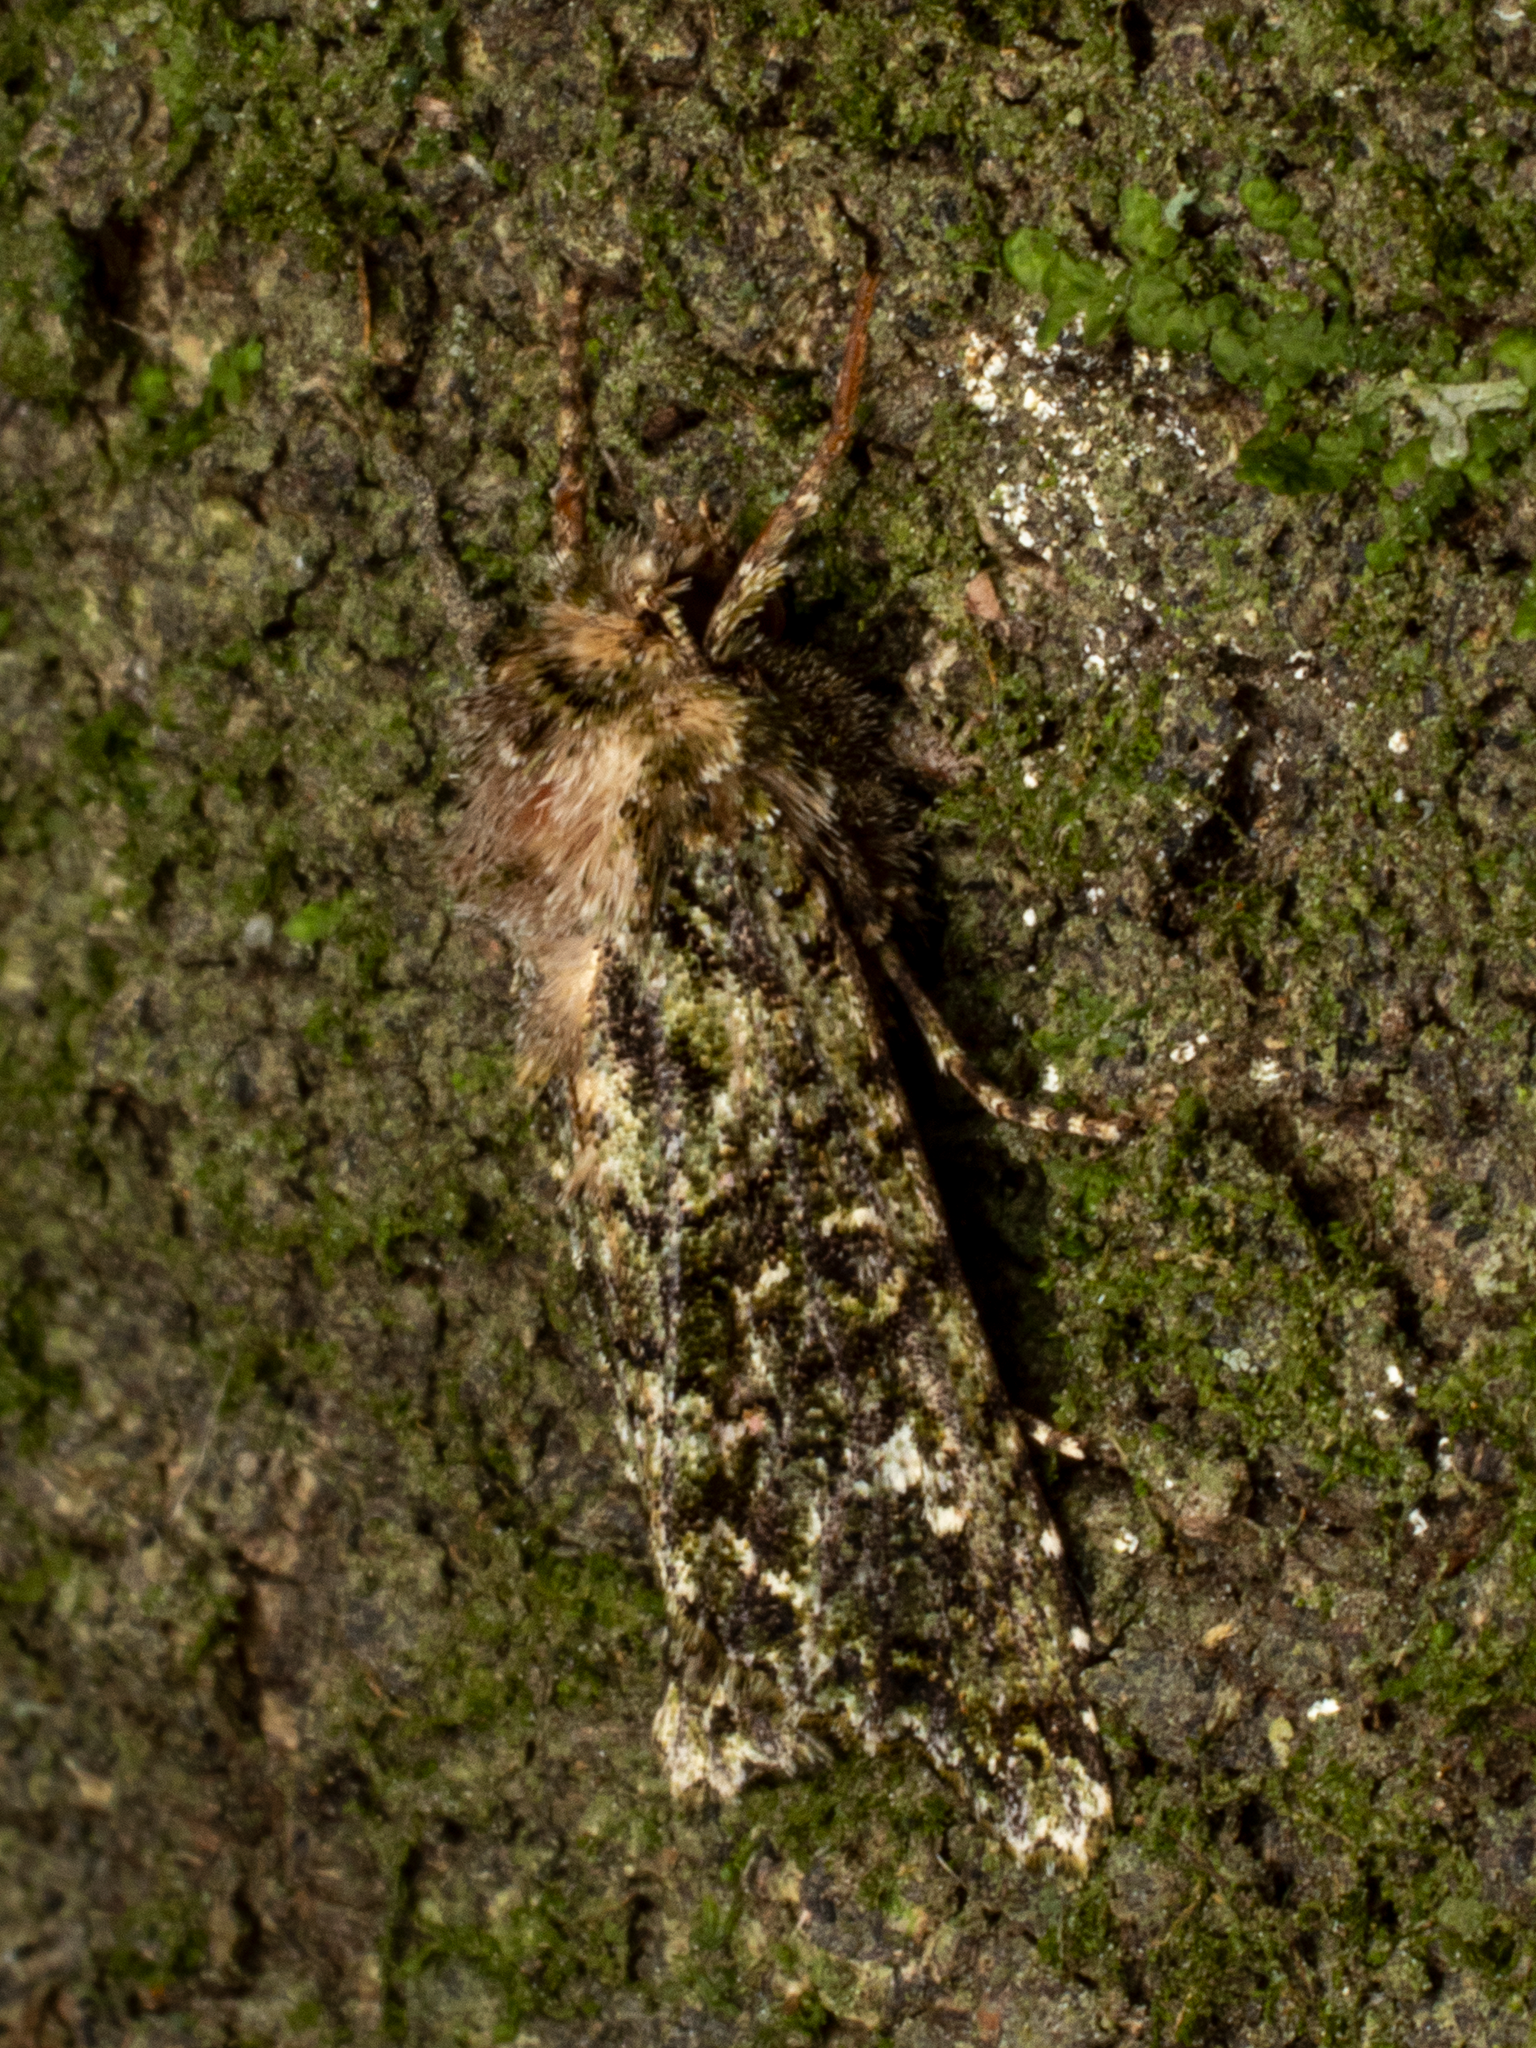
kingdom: Animalia
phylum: Arthropoda
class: Insecta
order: Lepidoptera
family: Noctuidae
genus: Feredayia
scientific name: Feredayia grammosa
